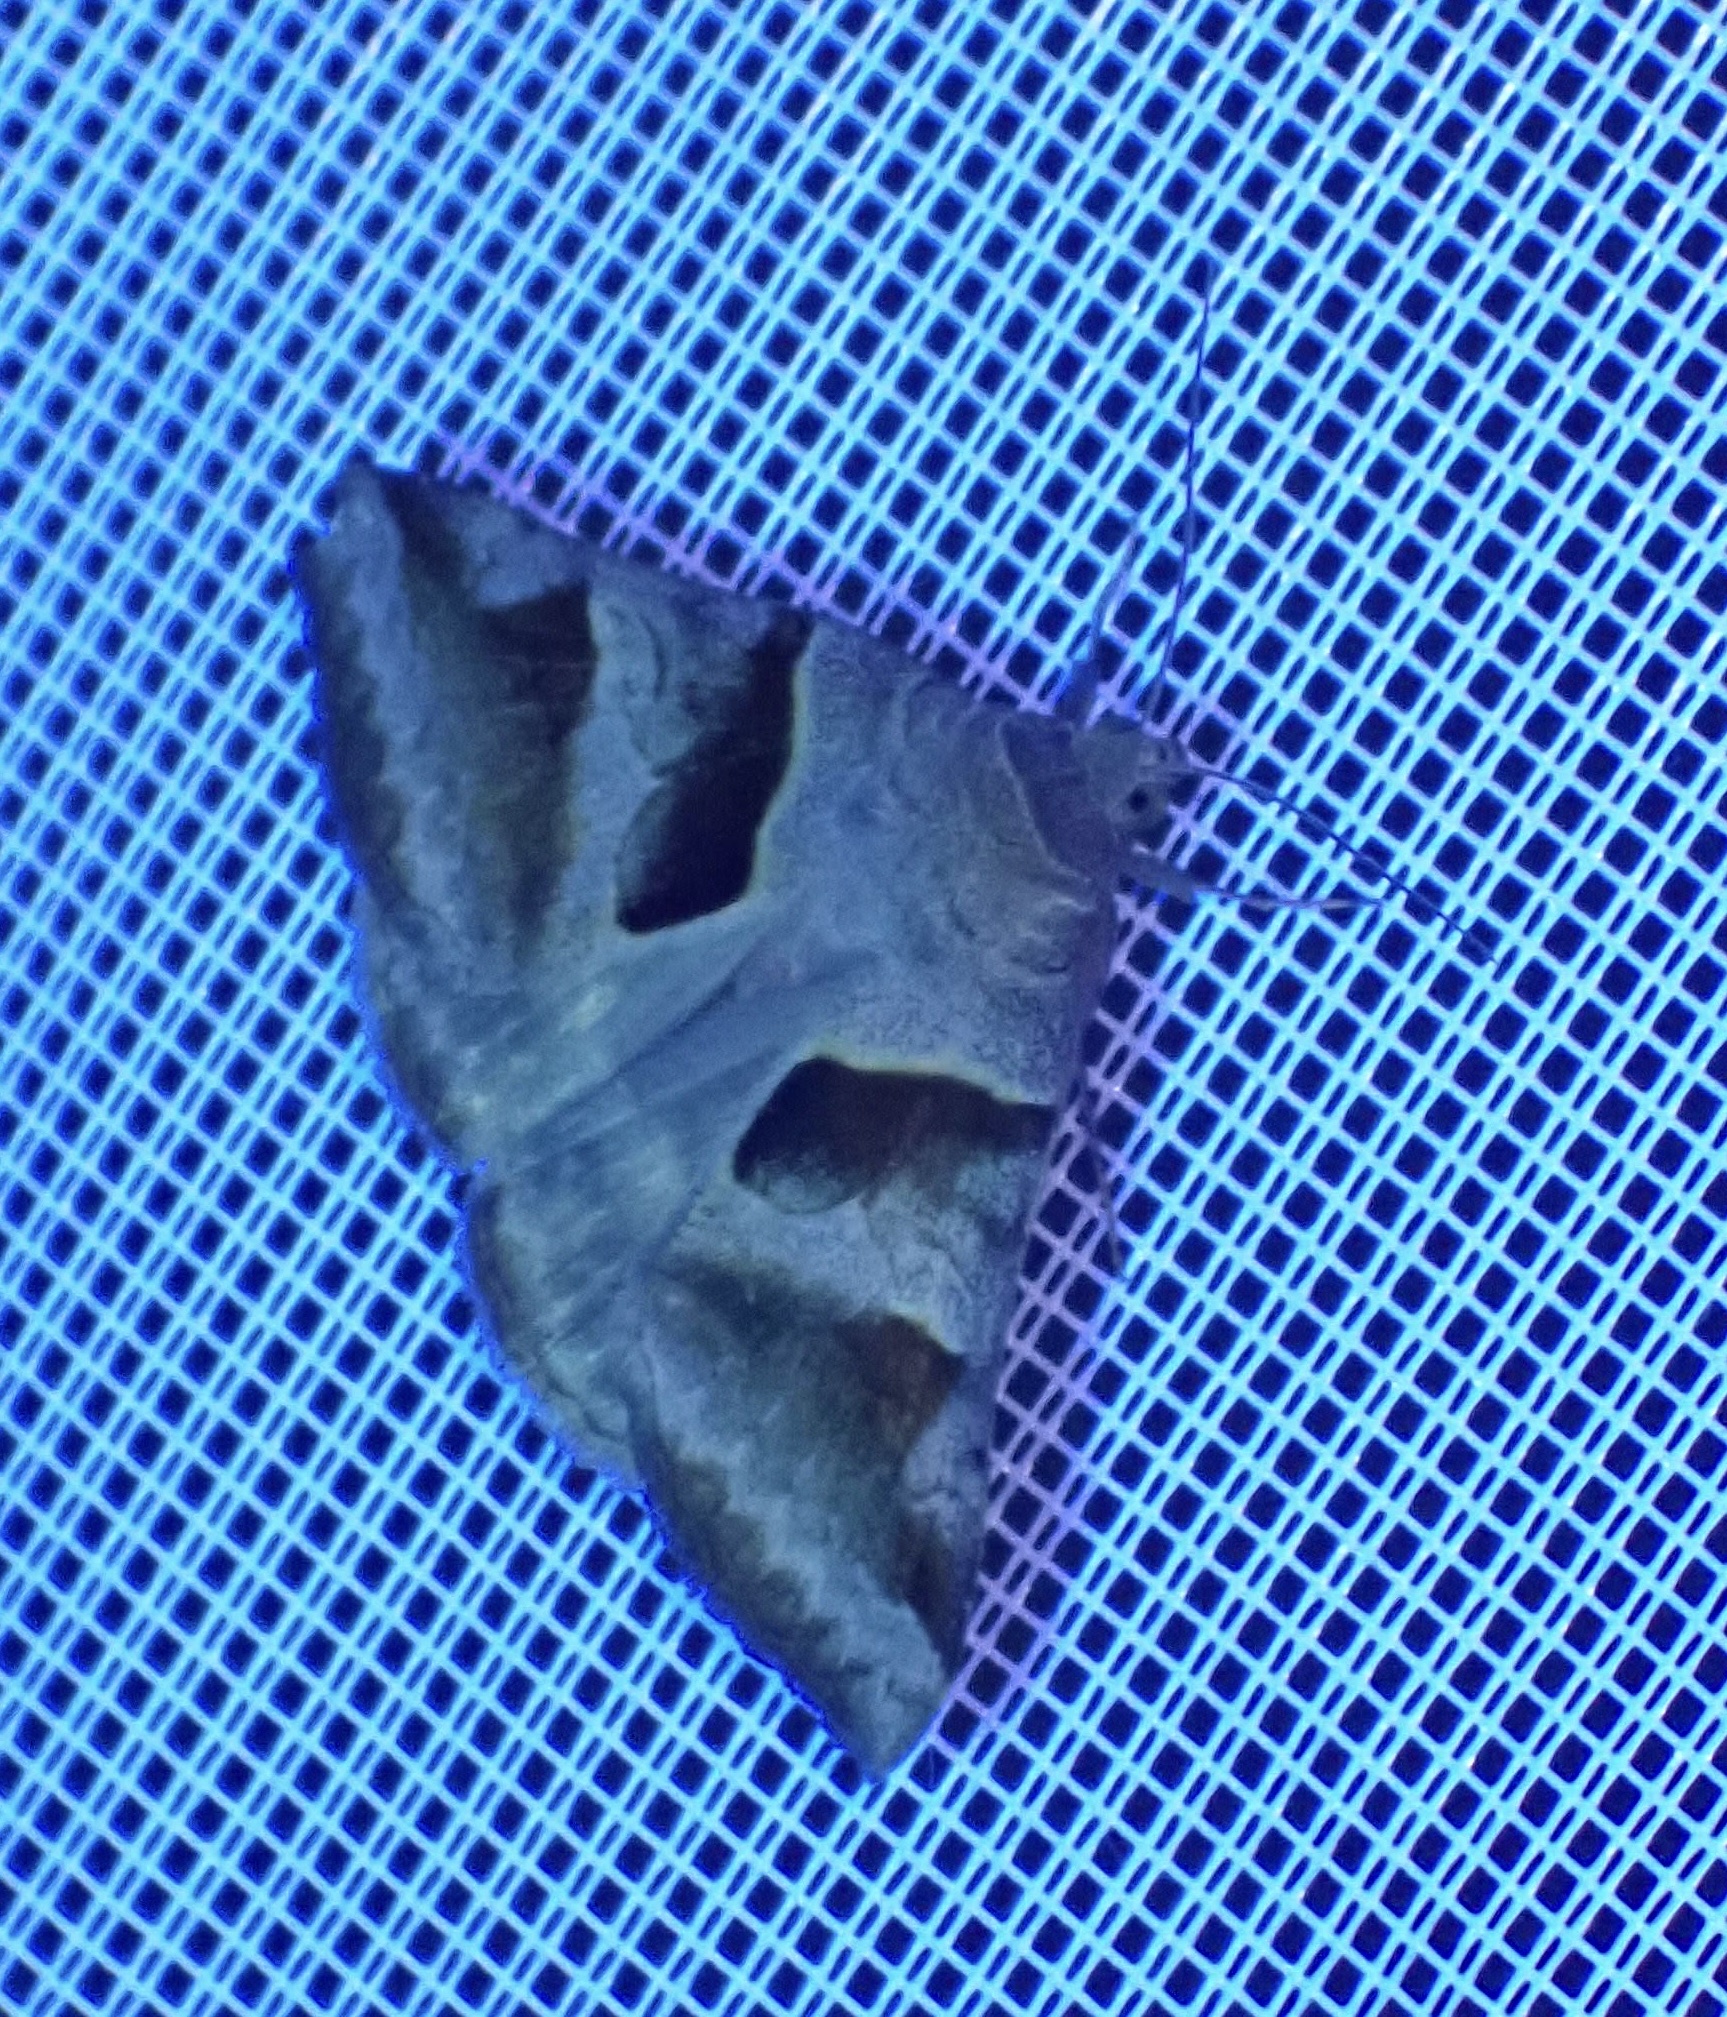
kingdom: Animalia
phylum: Arthropoda
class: Insecta
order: Lepidoptera
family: Erebidae
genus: Mocis
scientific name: Mocis mayeri
